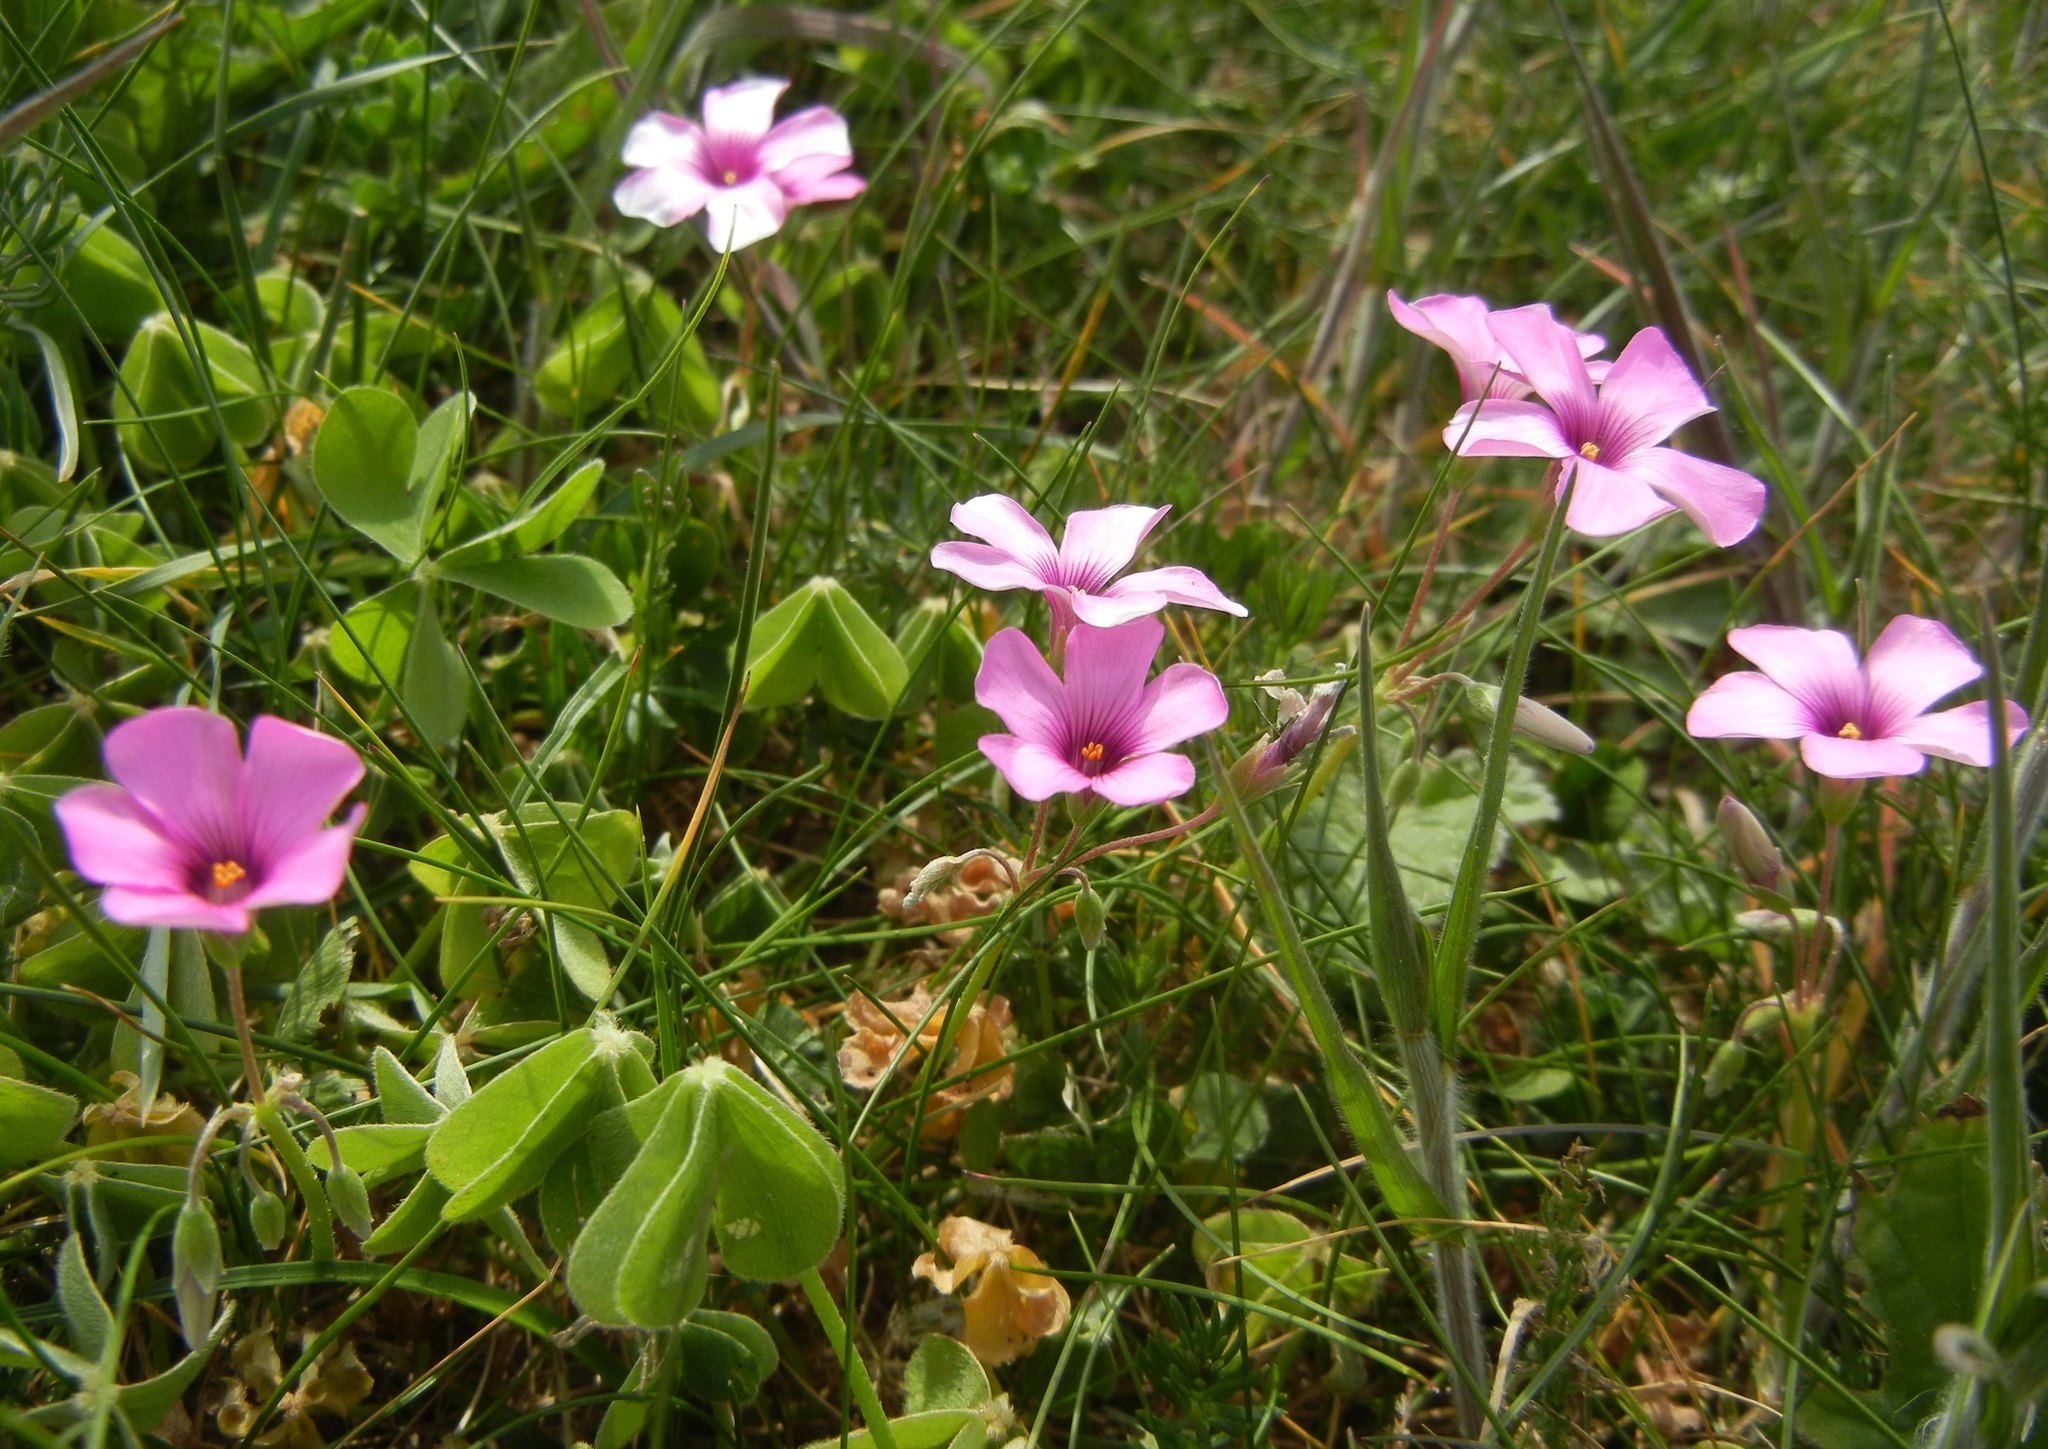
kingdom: Plantae
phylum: Tracheophyta
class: Magnoliopsida
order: Oxalidales
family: Oxalidaceae
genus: Oxalis
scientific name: Oxalis articulata
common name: Pink-sorrel
